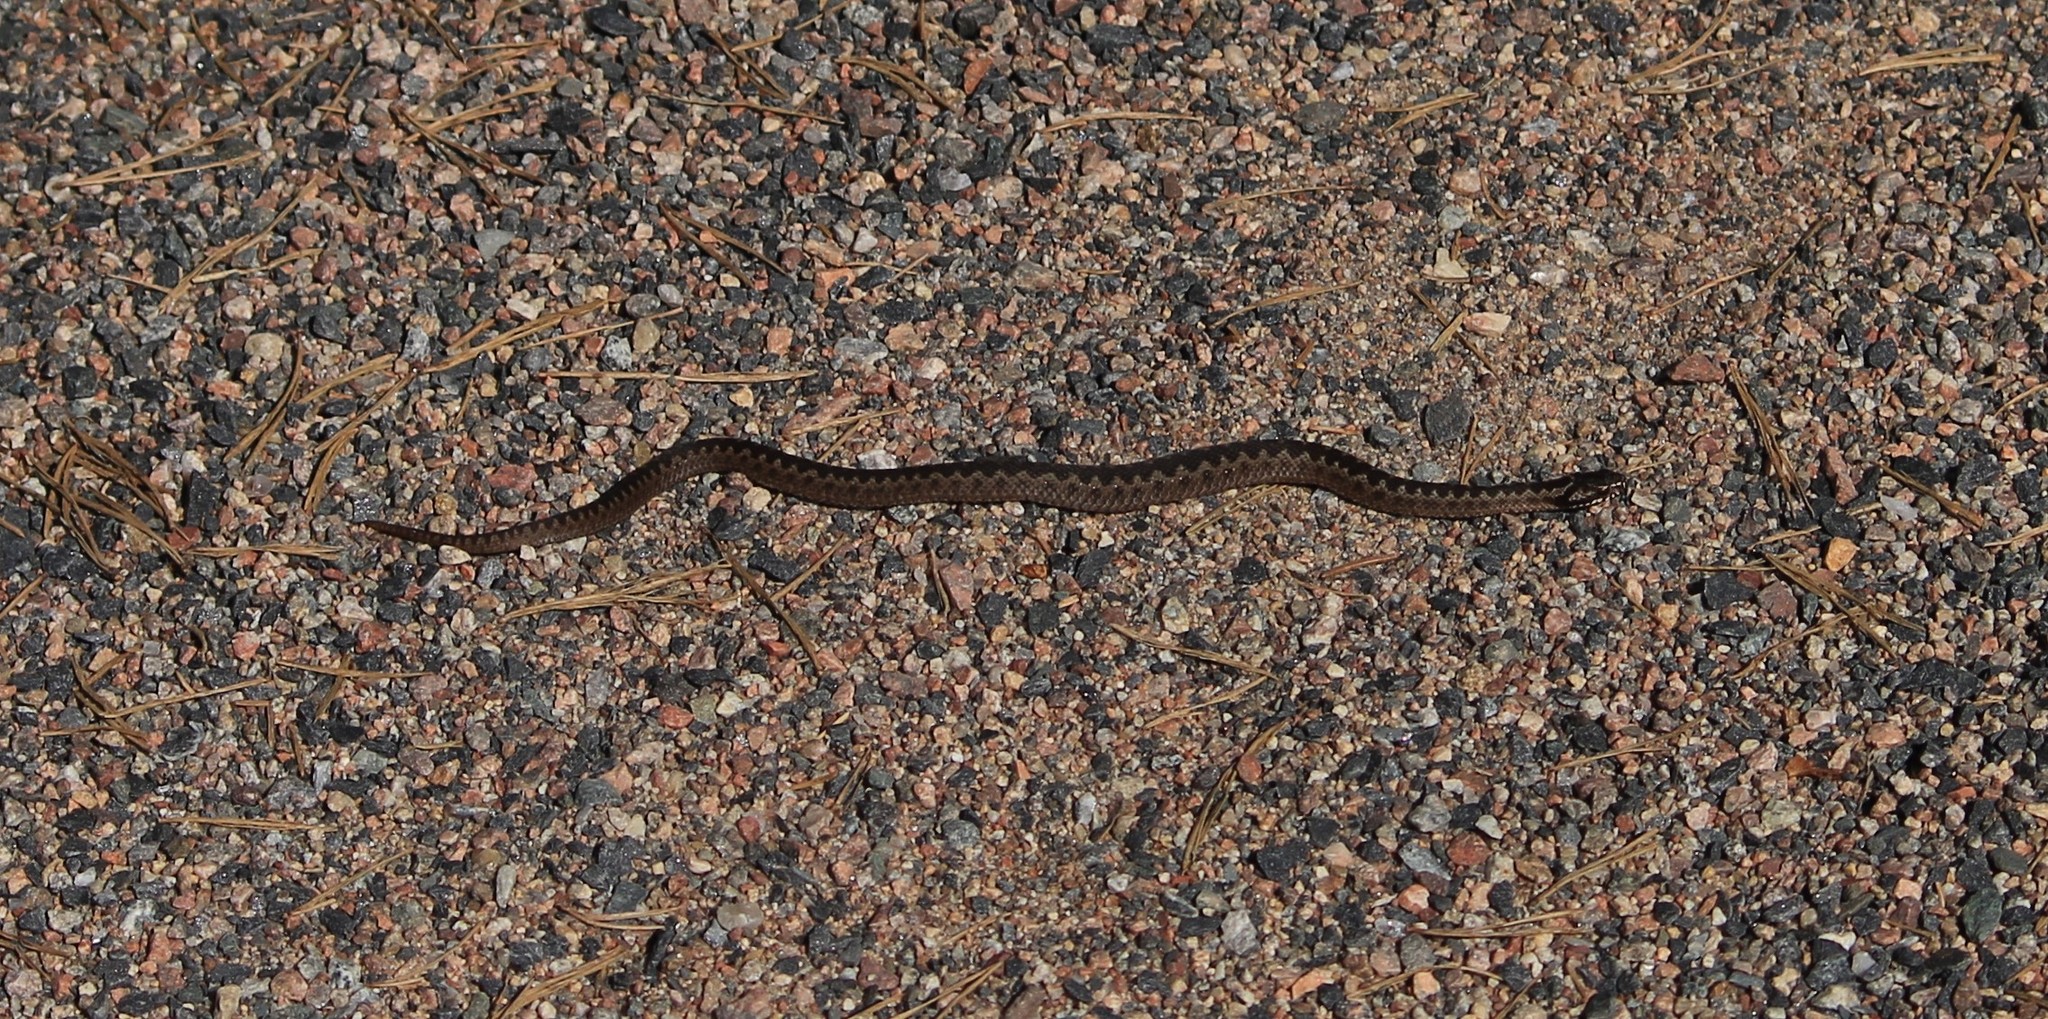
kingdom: Animalia
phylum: Chordata
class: Squamata
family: Viperidae
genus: Vipera
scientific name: Vipera berus
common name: Adder
